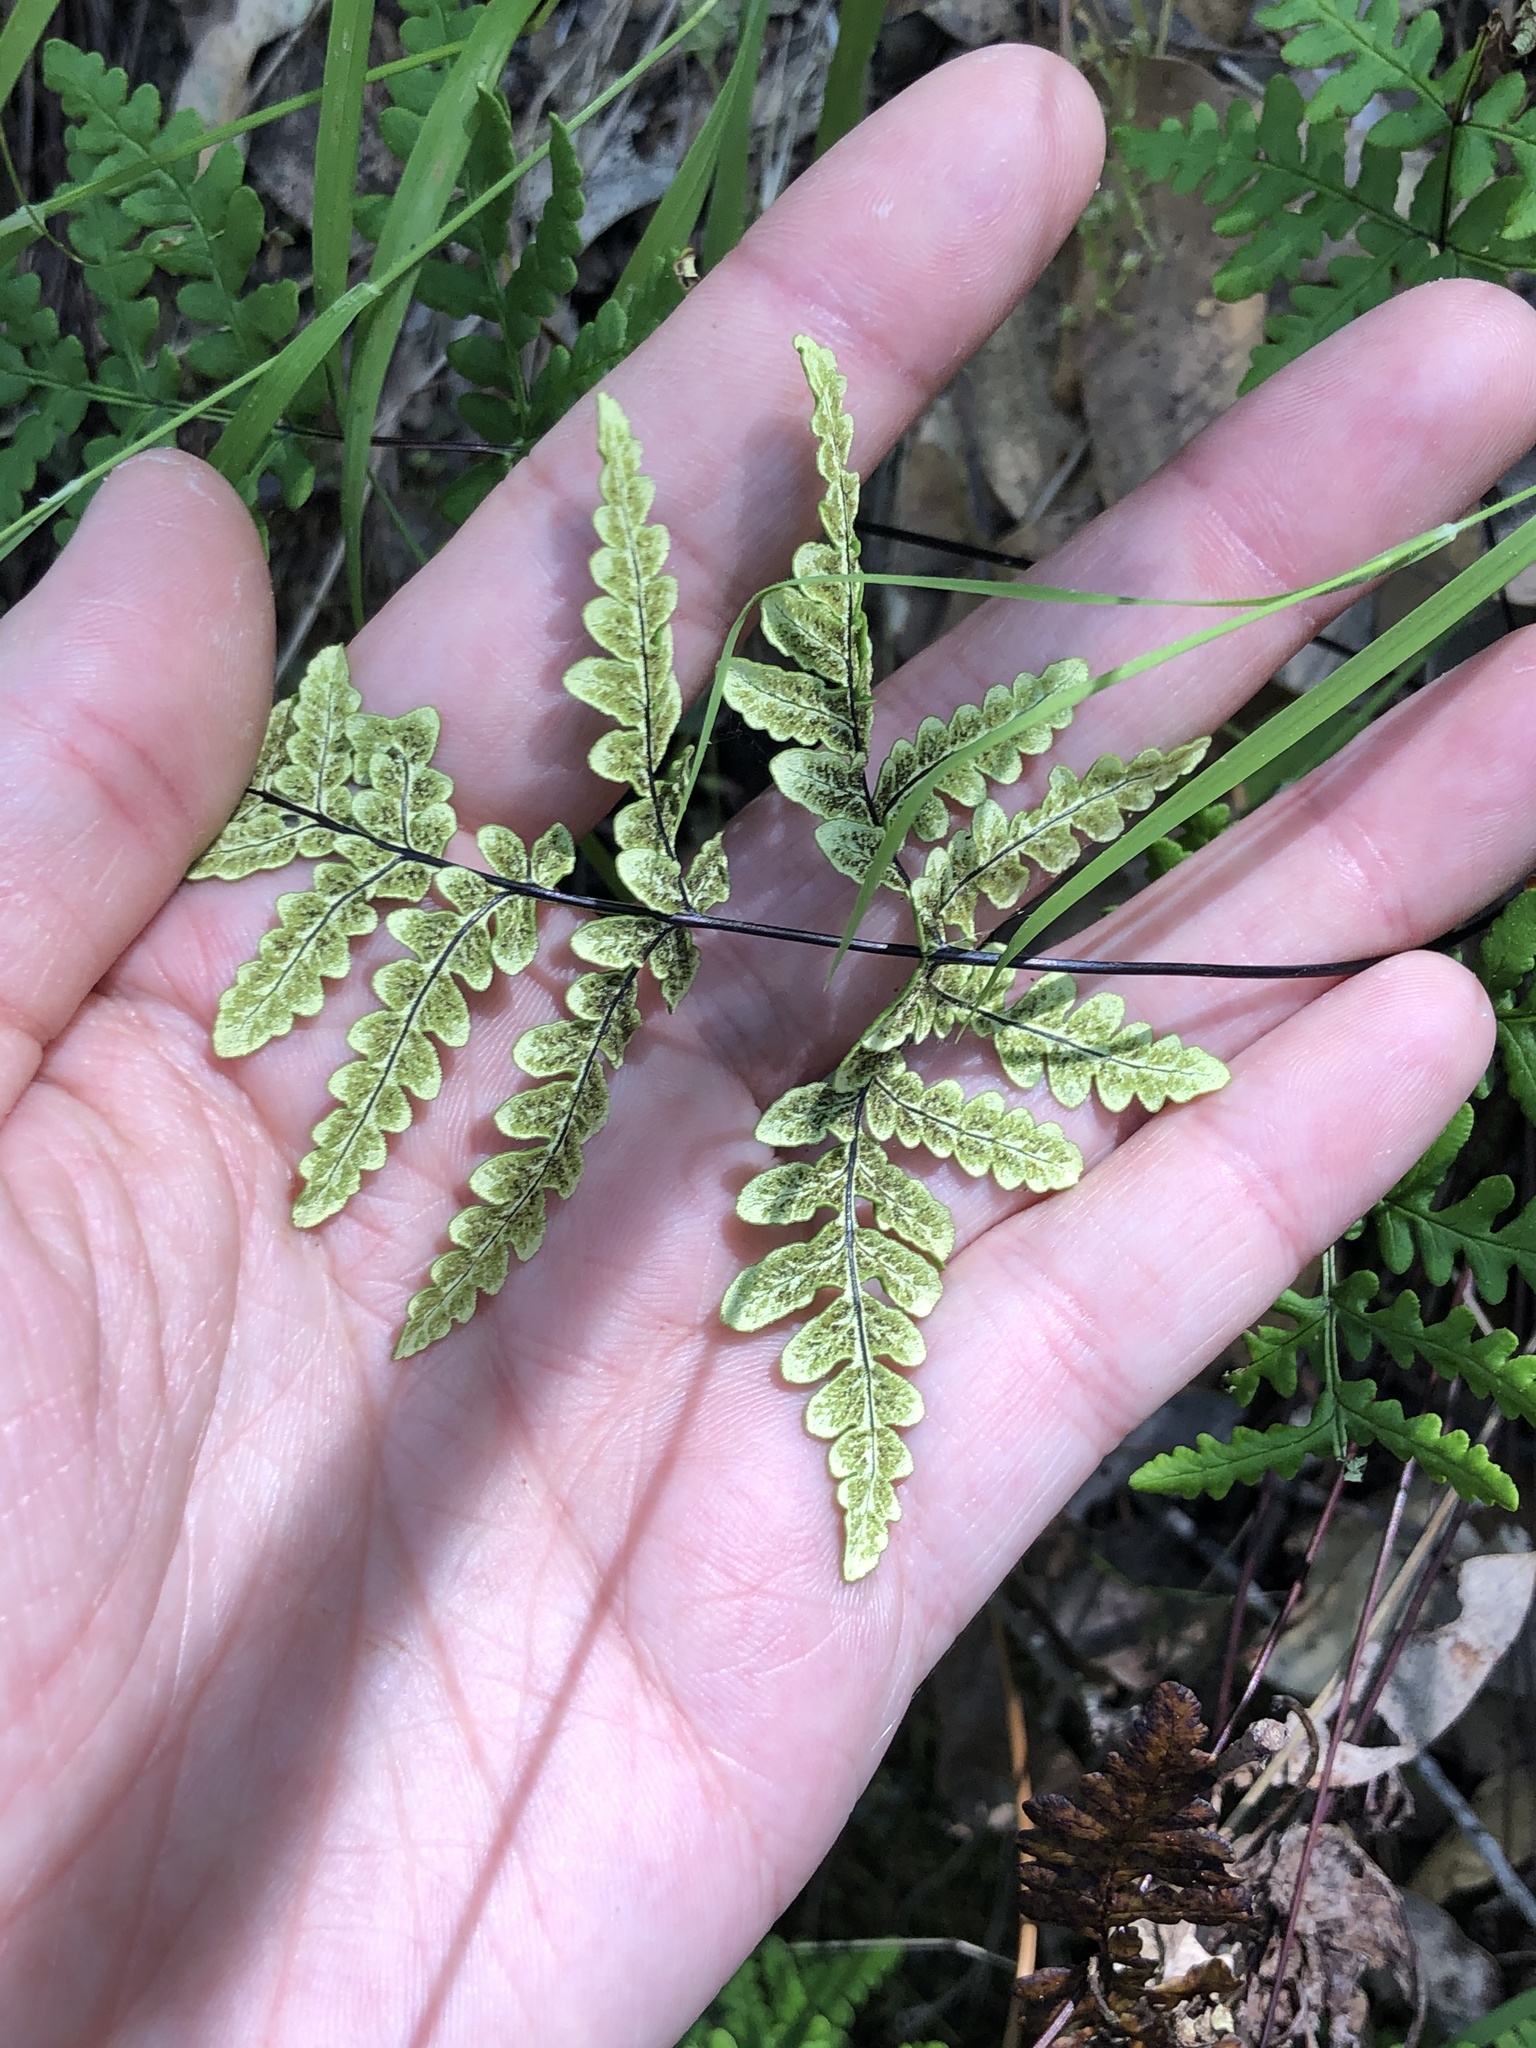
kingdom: Plantae
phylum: Tracheophyta
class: Polypodiopsida
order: Polypodiales
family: Pteridaceae
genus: Pentagramma
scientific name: Pentagramma triangularis
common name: Gold fern
